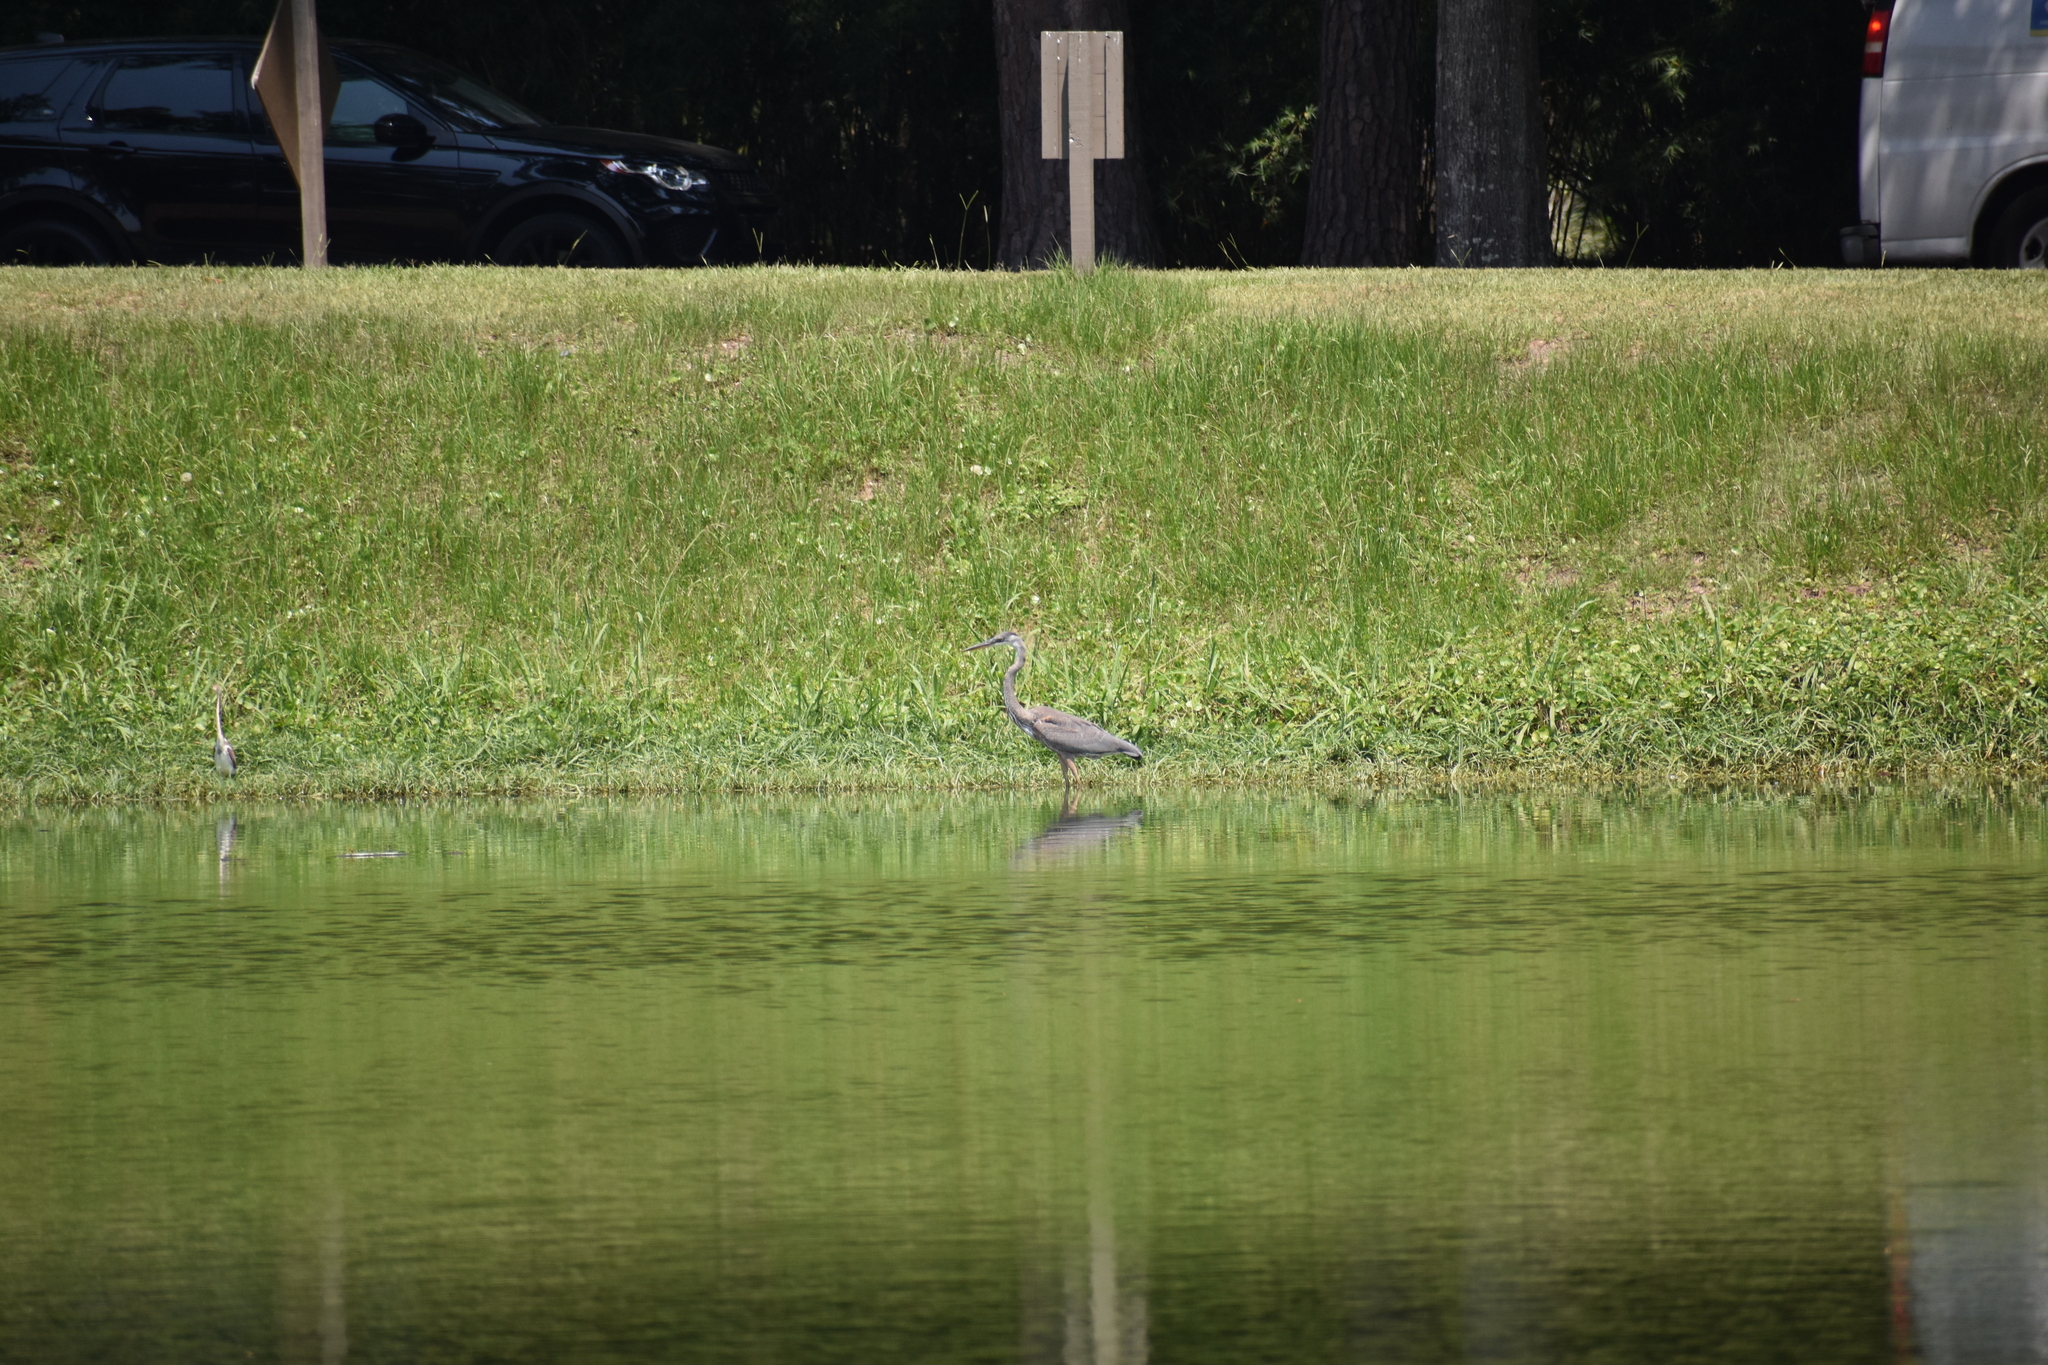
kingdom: Animalia
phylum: Chordata
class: Aves
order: Pelecaniformes
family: Ardeidae
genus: Ardea
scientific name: Ardea herodias
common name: Great blue heron
